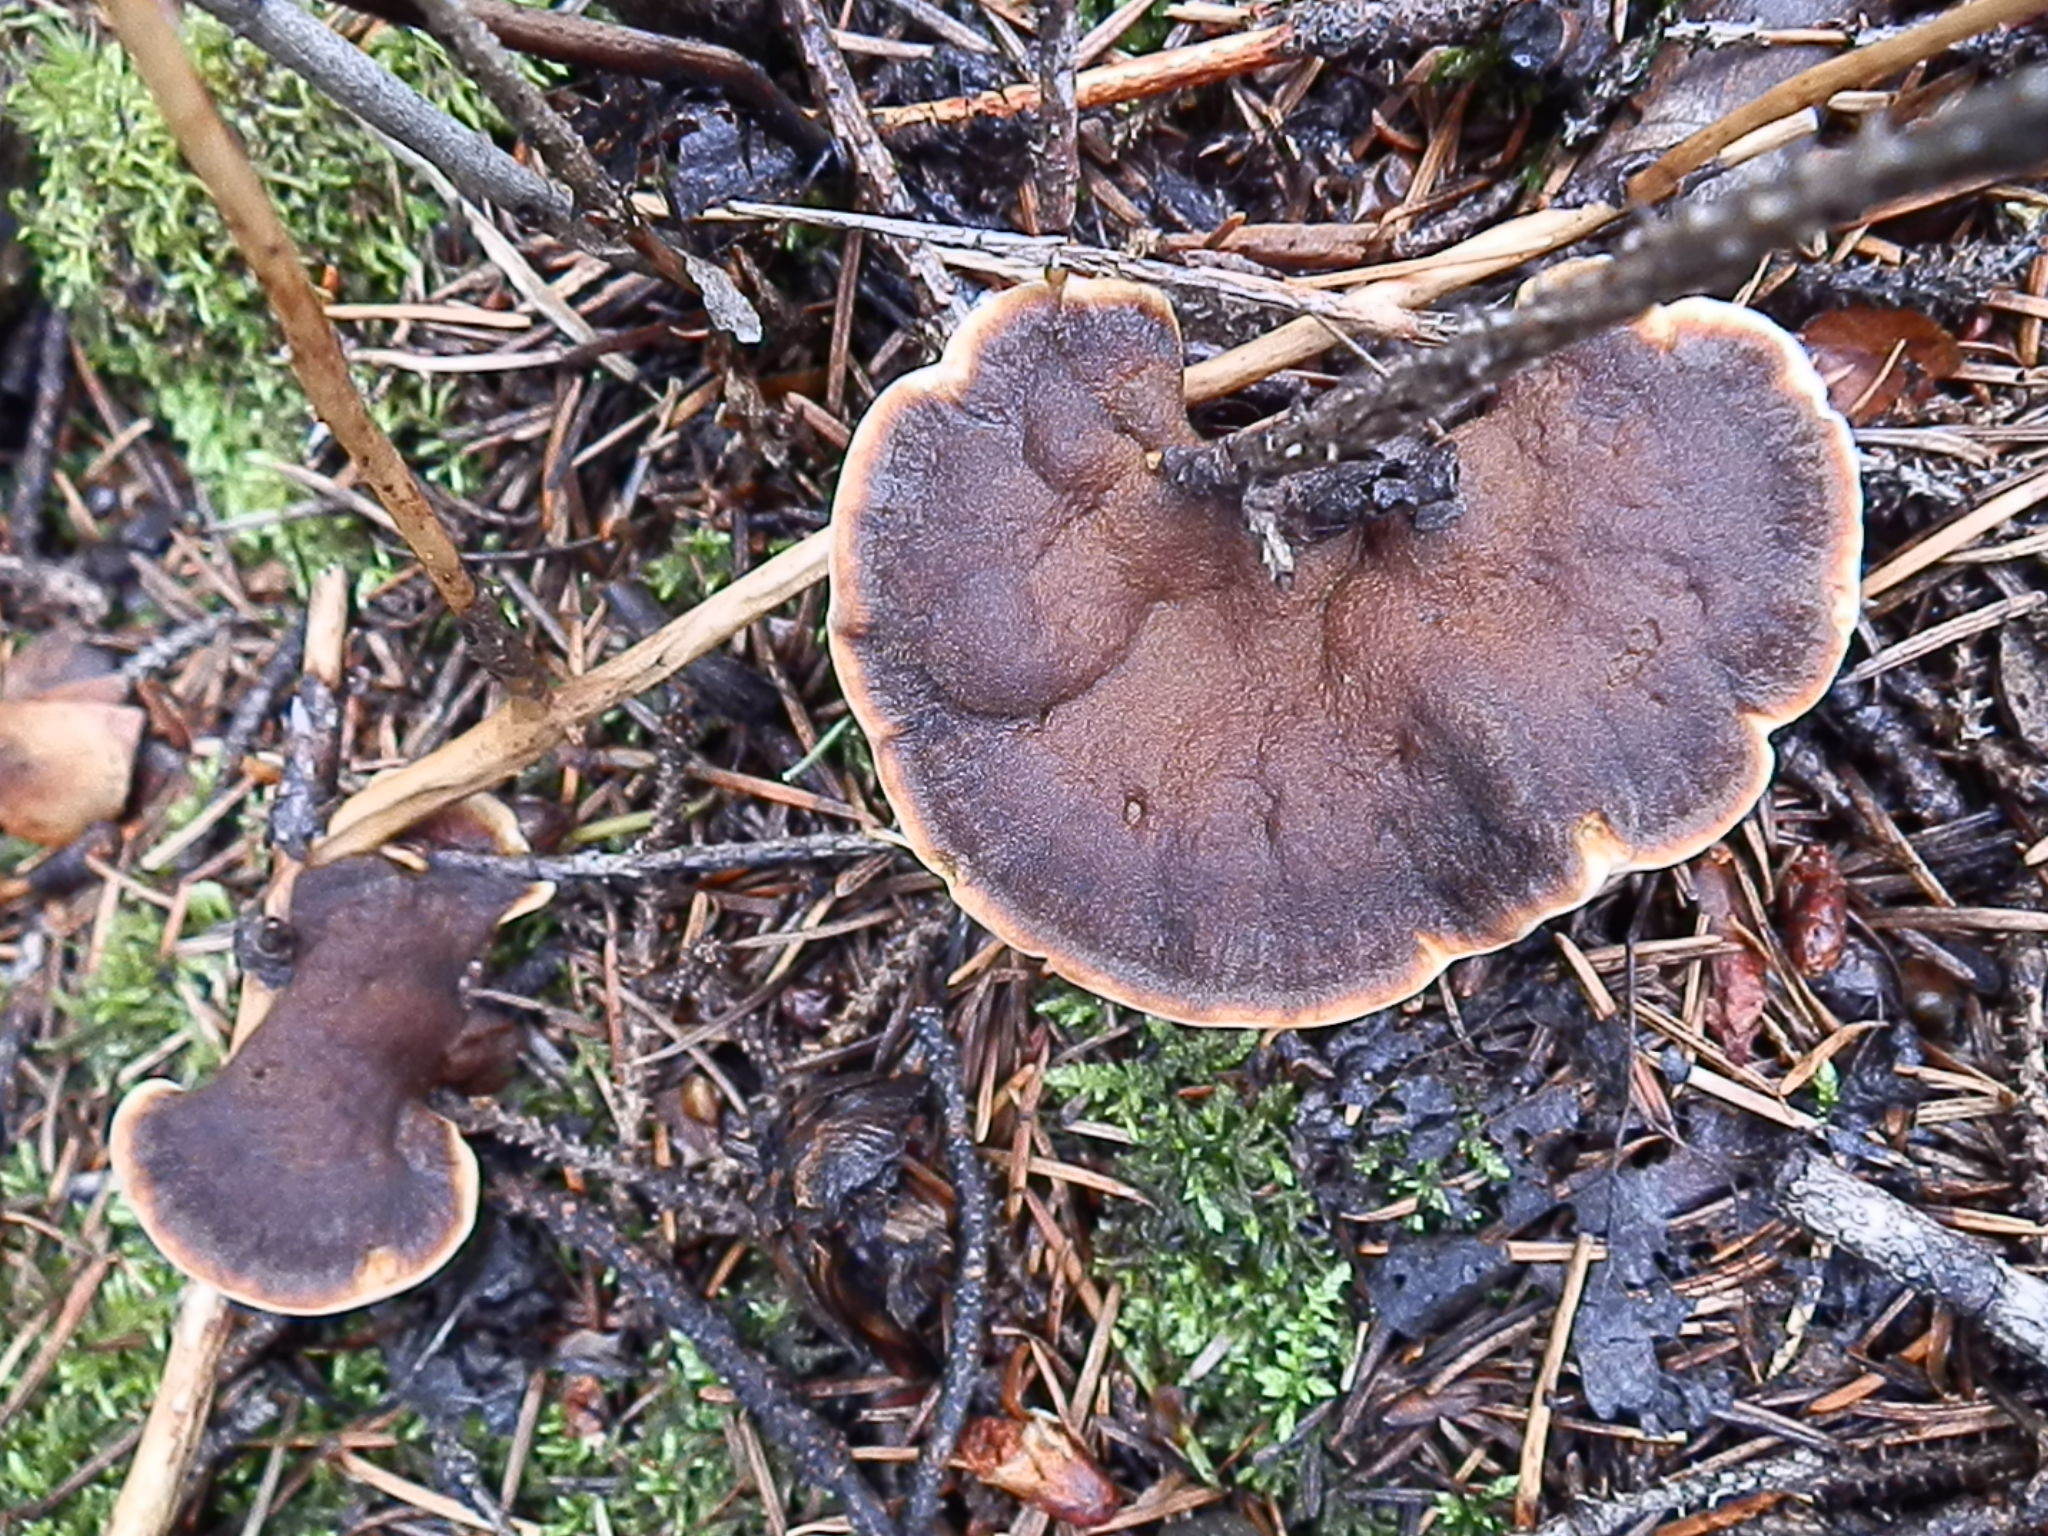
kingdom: Fungi
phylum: Basidiomycota
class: Agaricomycetes
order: Hymenochaetales
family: Hymenochaetaceae
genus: Onnia
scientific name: Onnia tomentosa
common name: Velvet rosette
